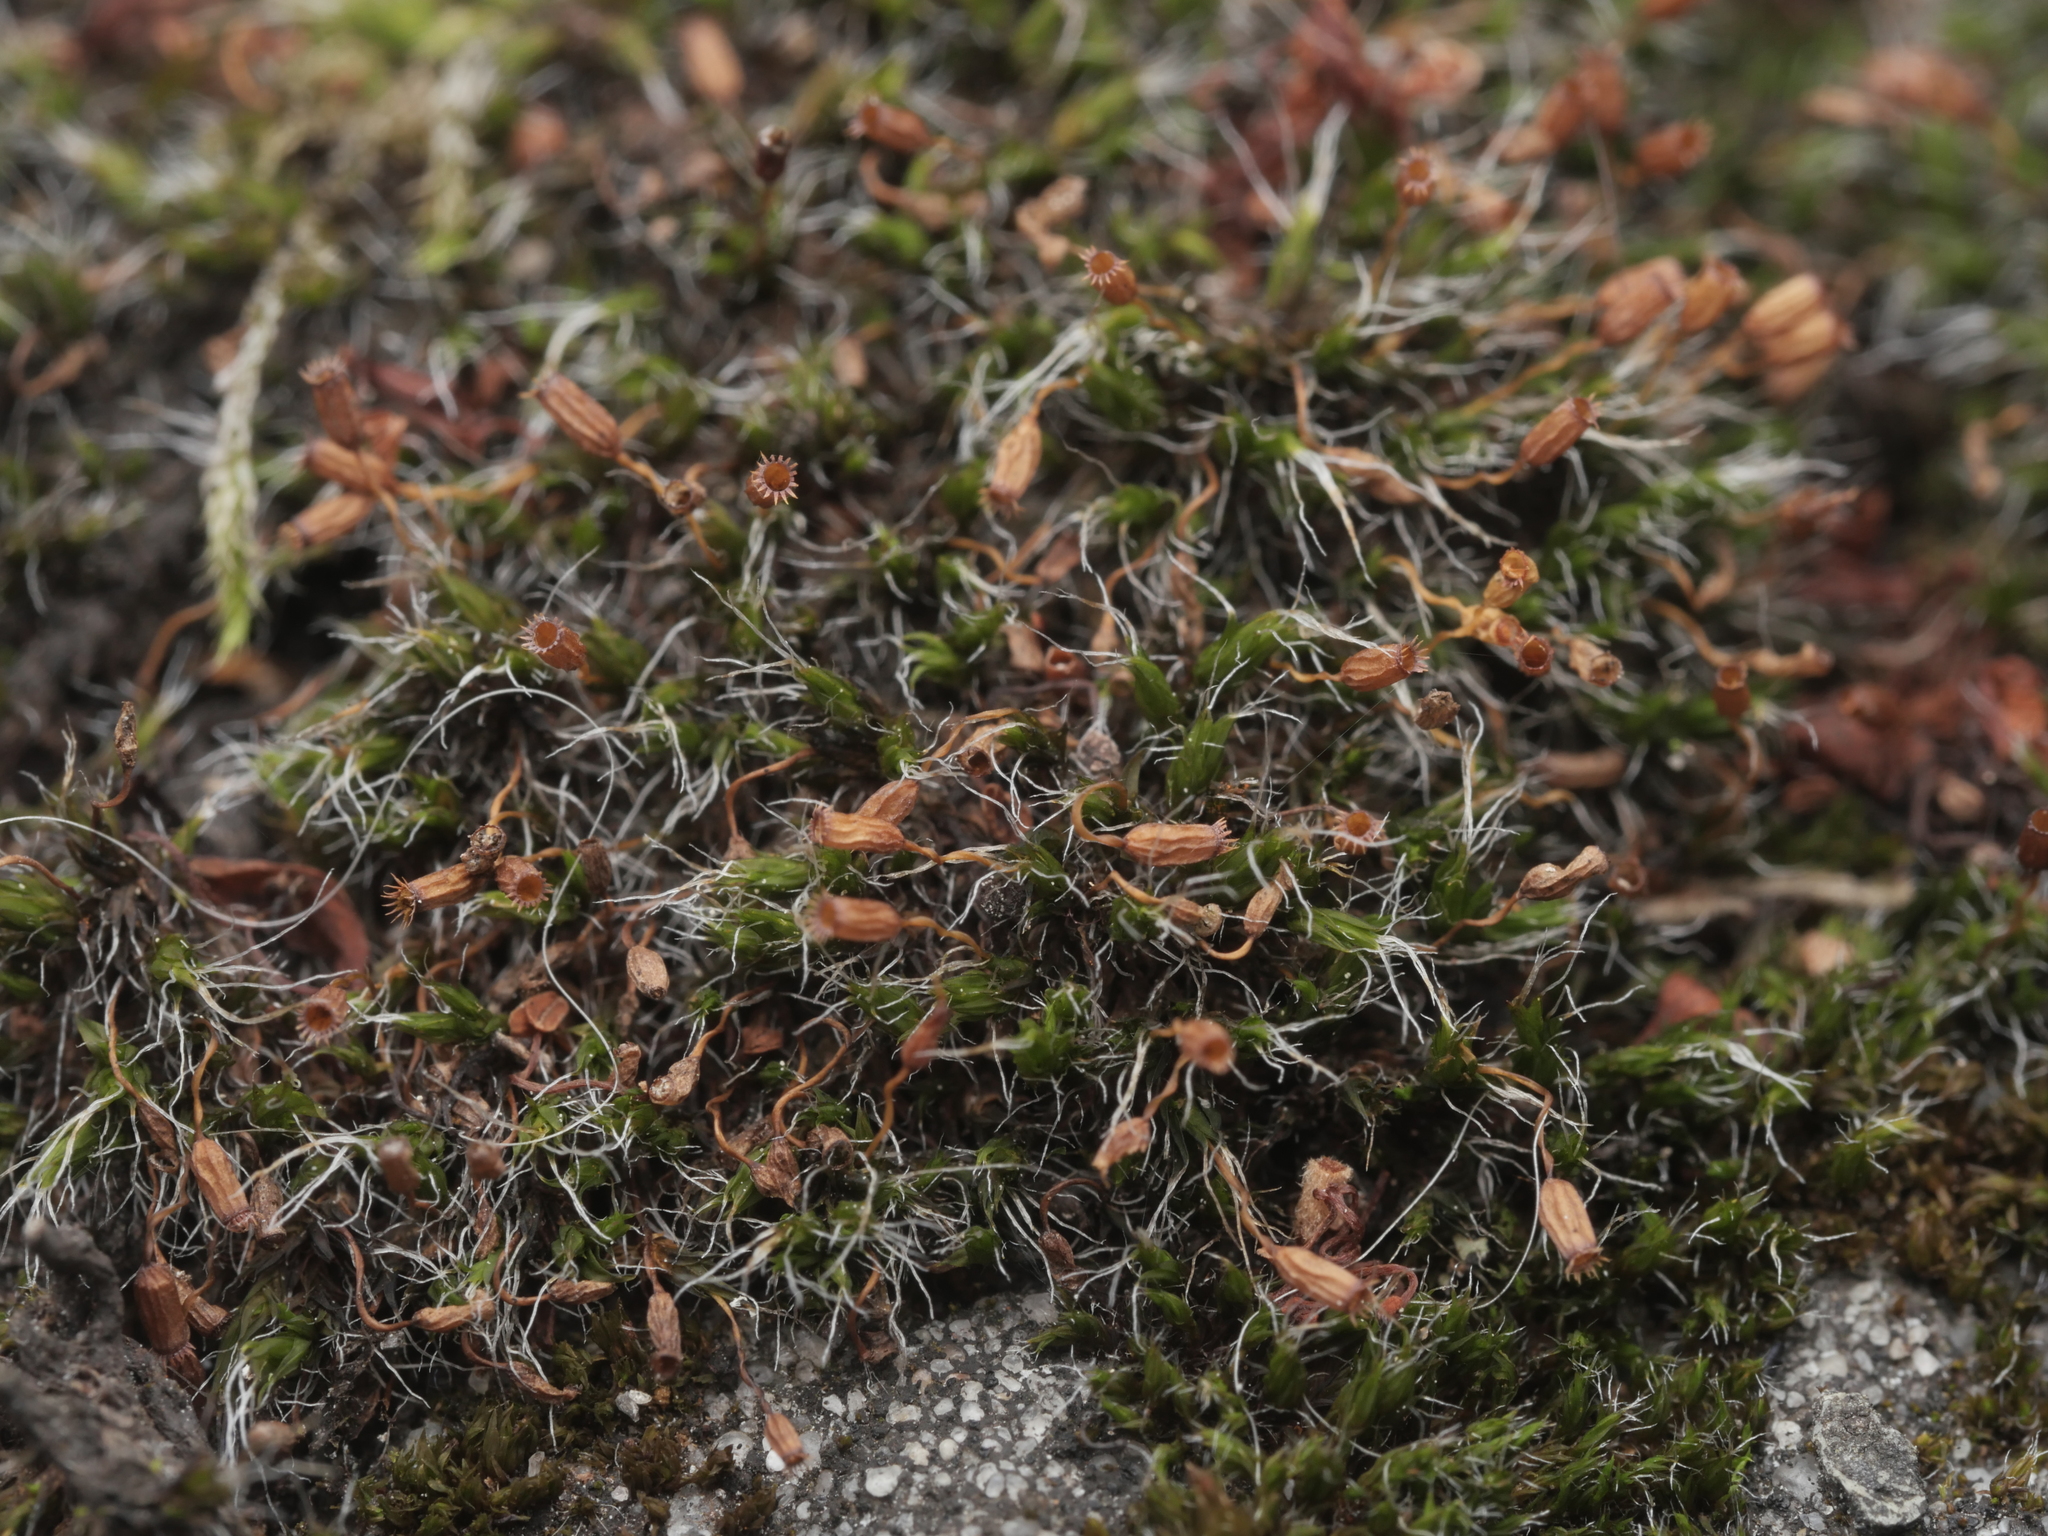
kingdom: Plantae
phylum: Bryophyta
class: Bryopsida
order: Grimmiales
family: Grimmiaceae
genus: Grimmia
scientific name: Grimmia pulvinata
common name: Grey-cushioned grimmia
